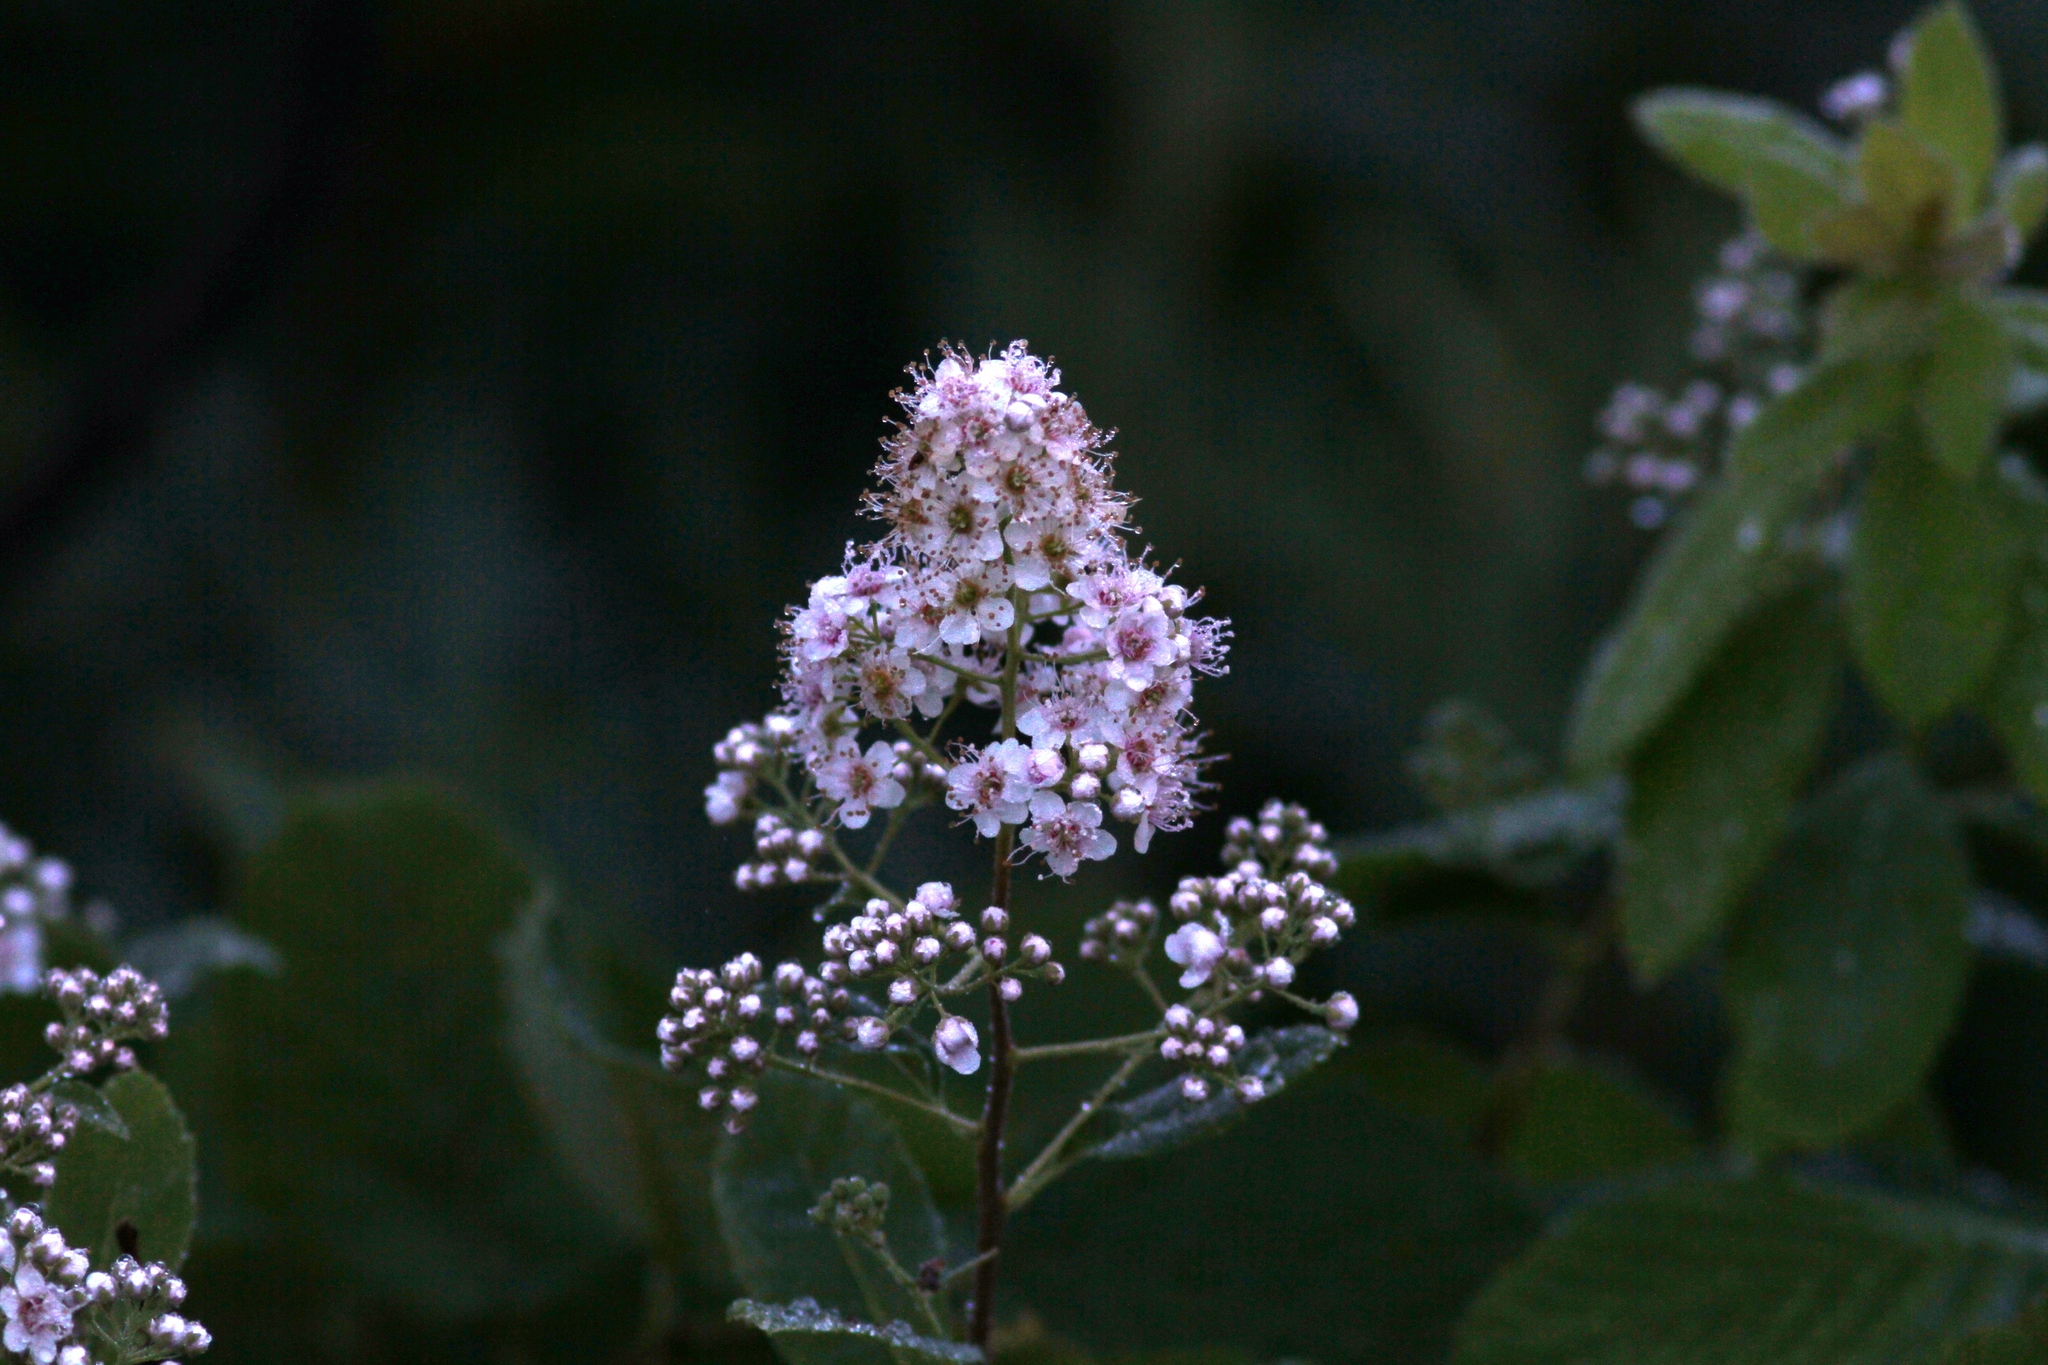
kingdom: Plantae
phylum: Tracheophyta
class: Magnoliopsida
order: Rosales
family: Rosaceae
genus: Spiraea
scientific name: Spiraea alba
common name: Pale bridewort
